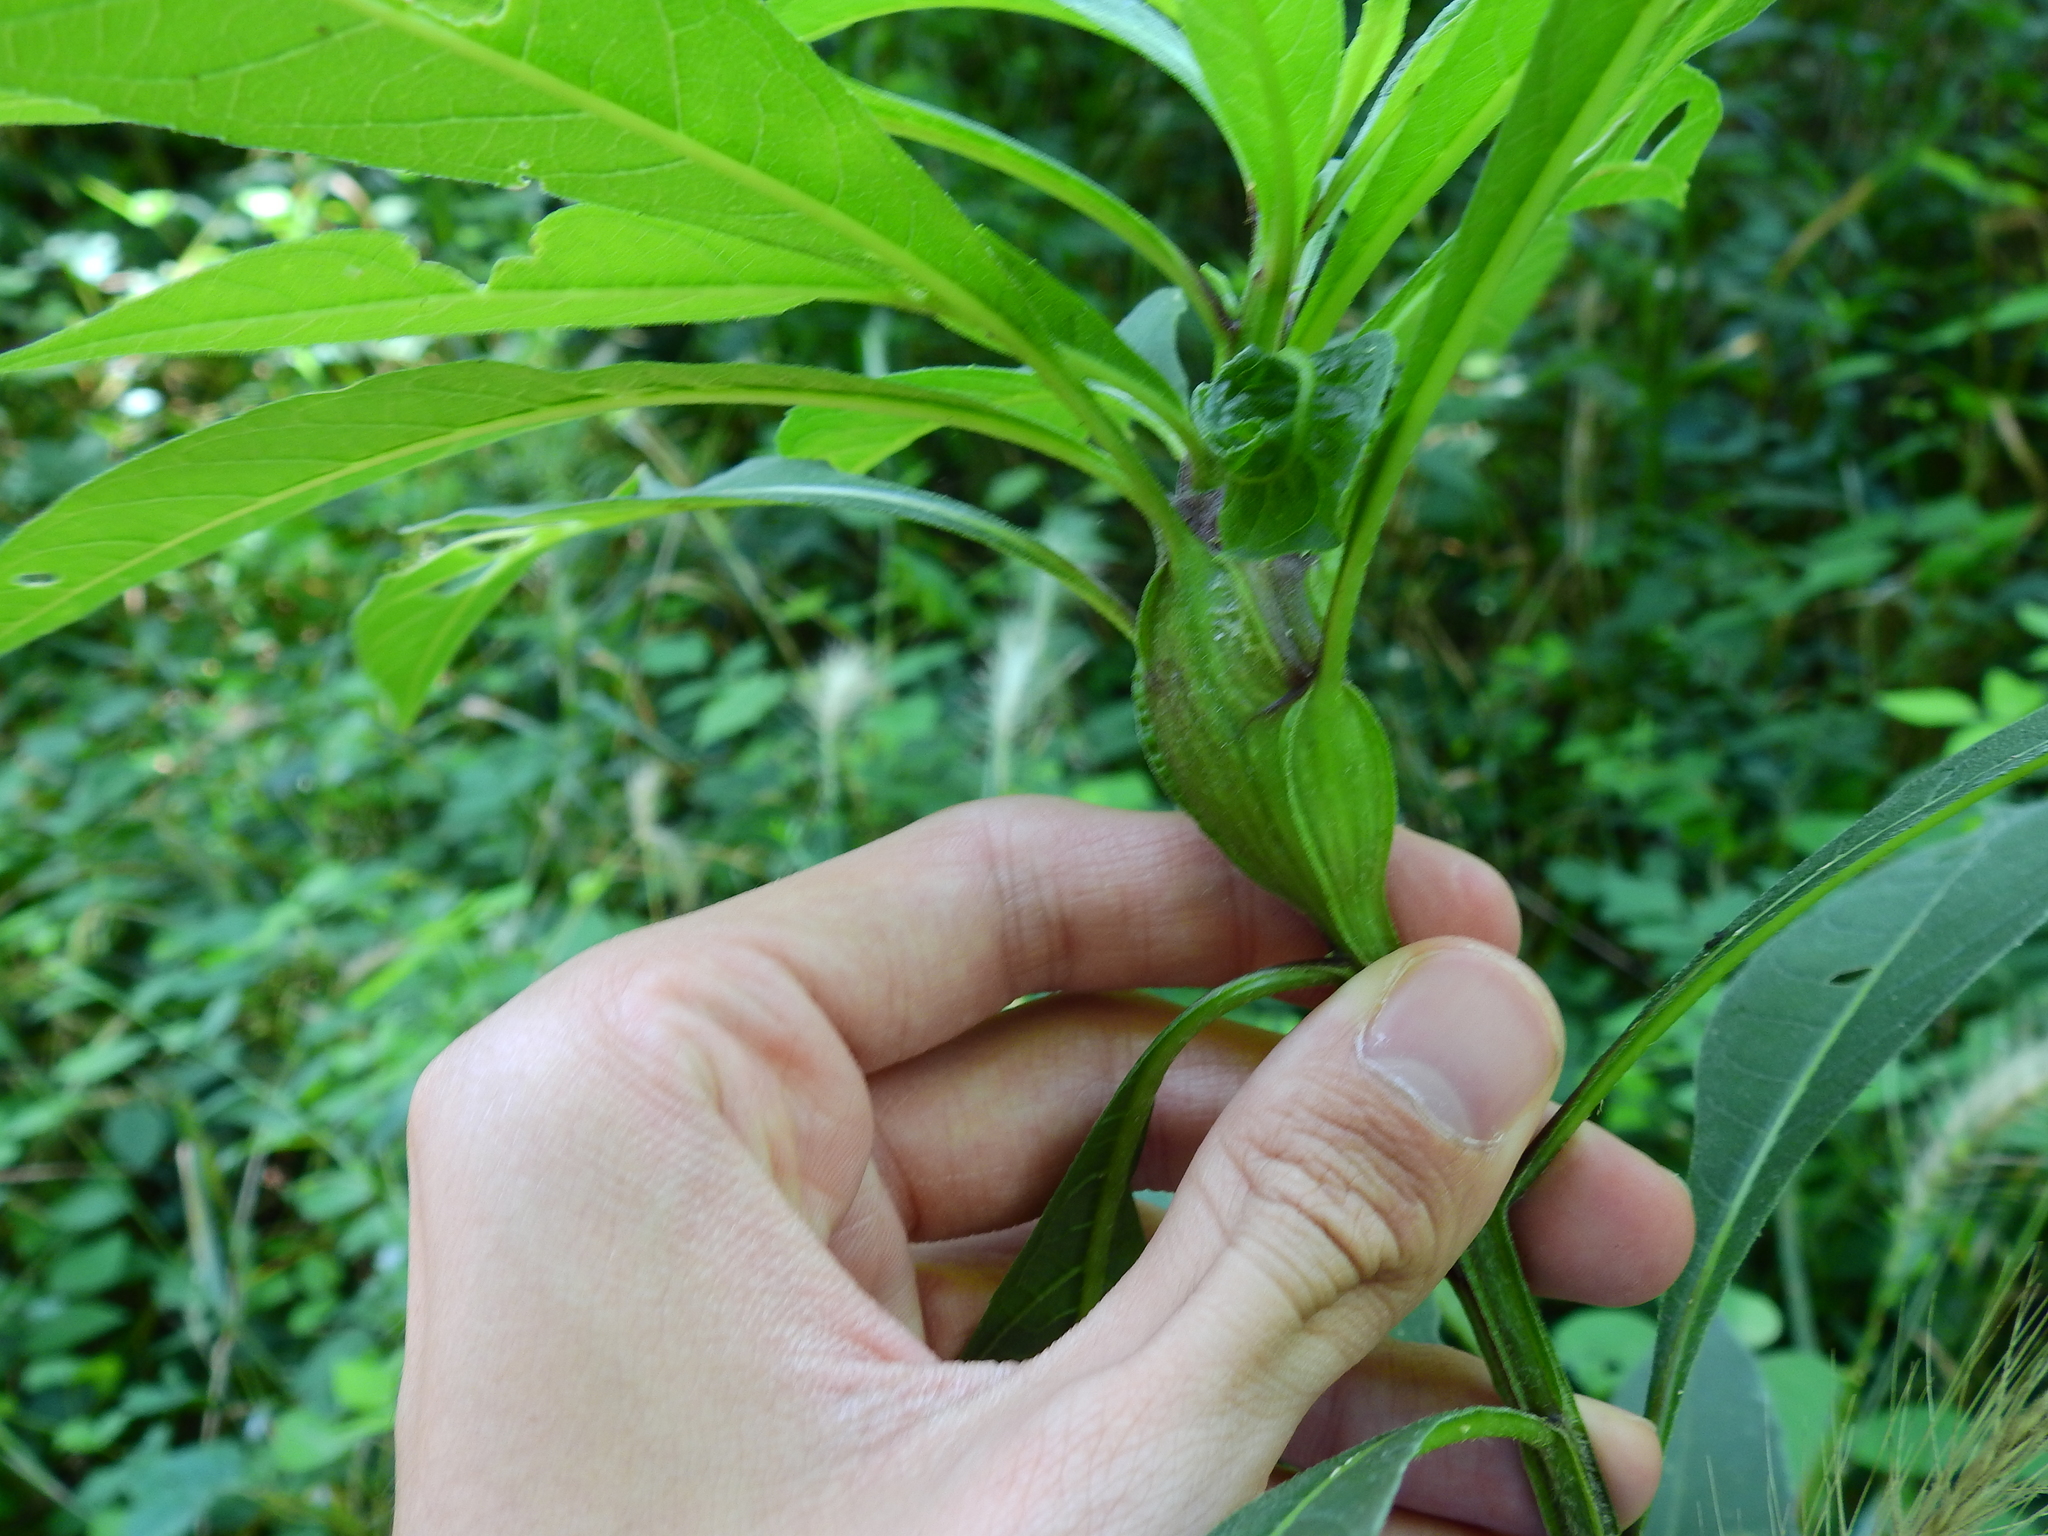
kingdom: Animalia
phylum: Arthropoda
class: Insecta
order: Diptera
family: Cecidomyiidae
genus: Neolasioptera
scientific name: Neolasioptera verbesinae
